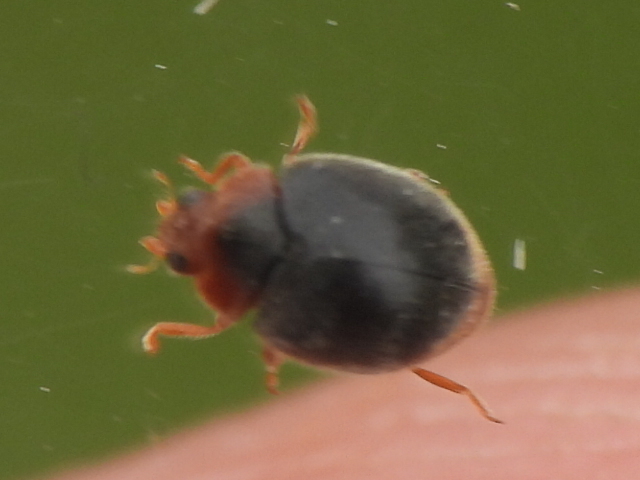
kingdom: Animalia
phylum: Arthropoda
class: Insecta
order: Coleoptera
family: Coccinellidae
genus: Scymnus
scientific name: Scymnus louisianae
